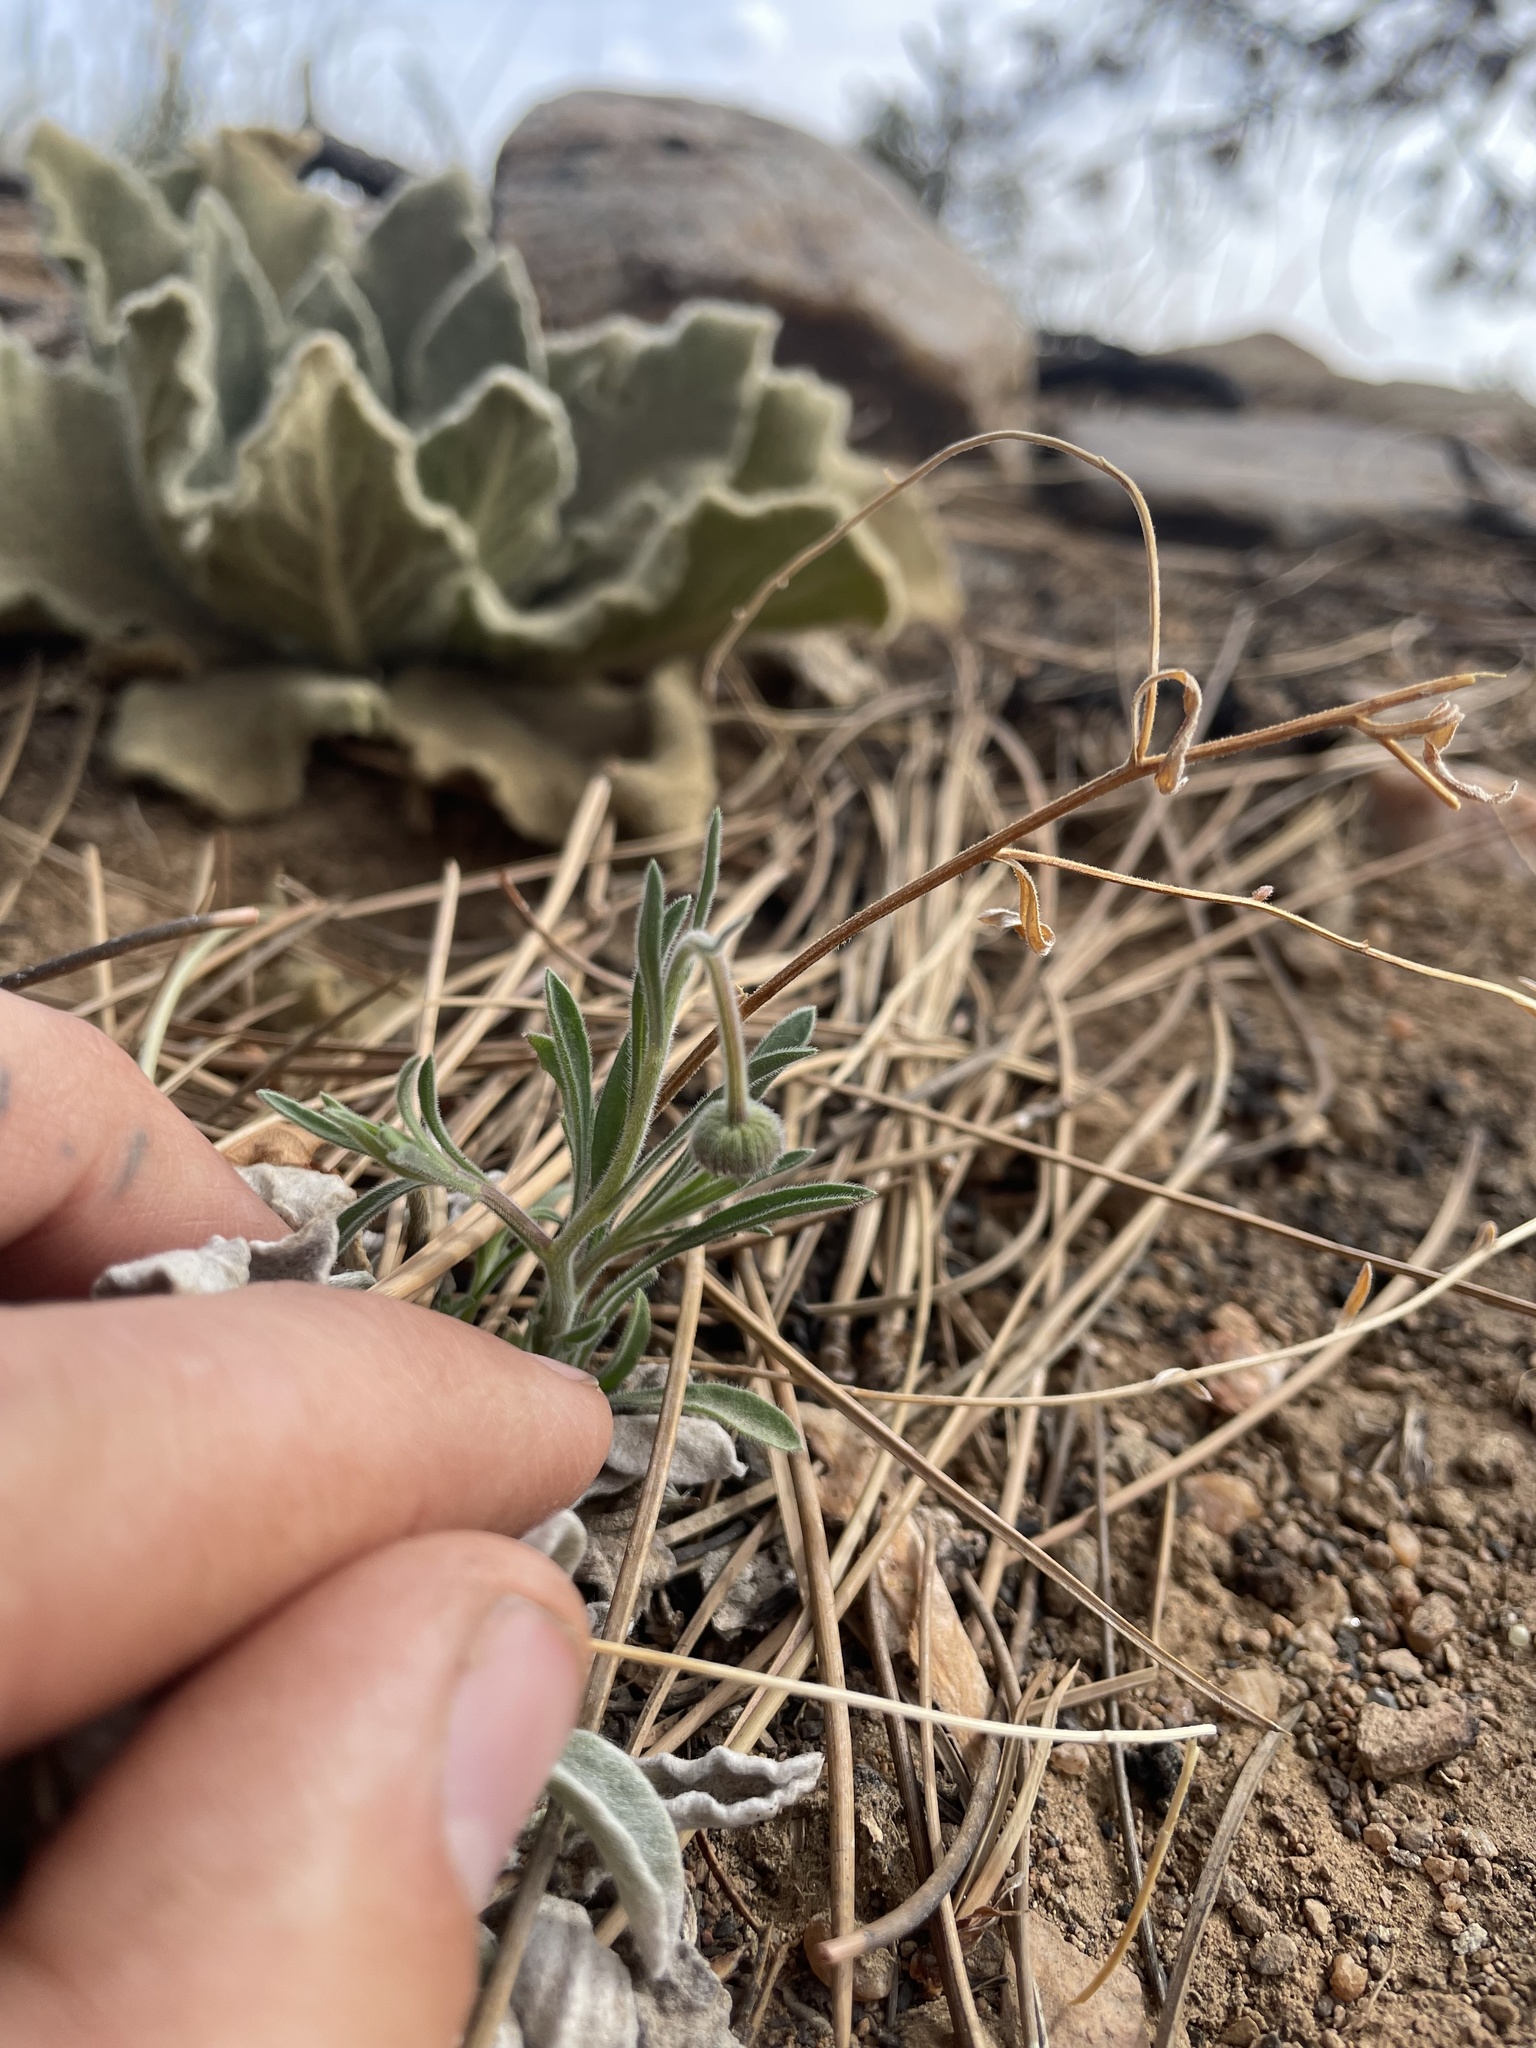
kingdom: Plantae
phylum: Tracheophyta
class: Magnoliopsida
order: Asterales
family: Asteraceae
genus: Erigeron
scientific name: Erigeron divergens
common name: Diffuse fleabane
